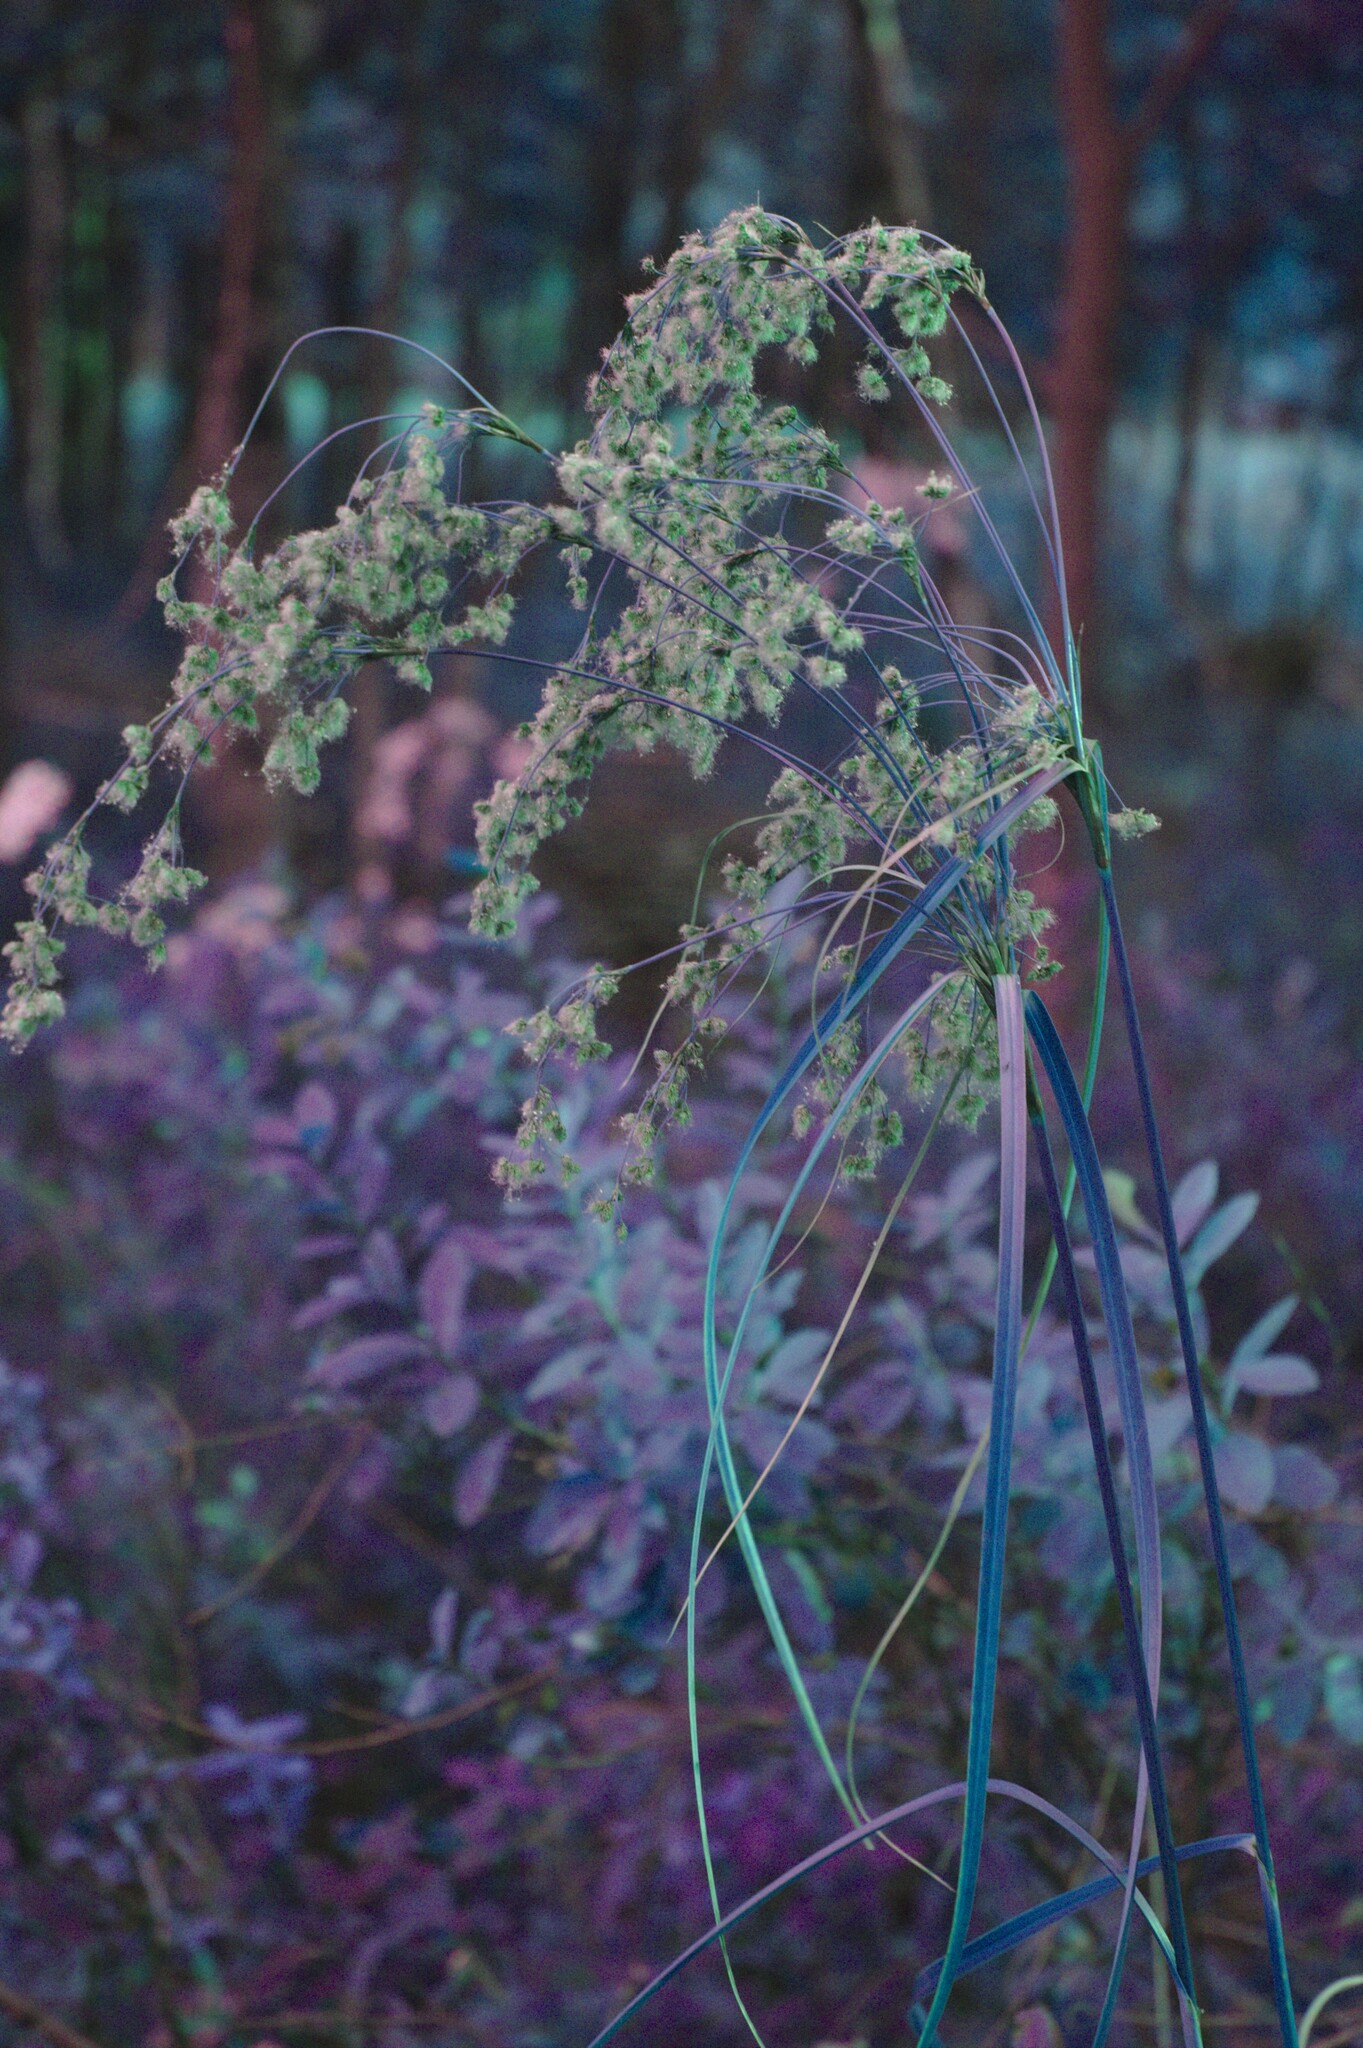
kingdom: Plantae
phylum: Tracheophyta
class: Liliopsida
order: Poales
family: Cyperaceae
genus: Scirpus
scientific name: Scirpus cyperinus
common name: Black-sheathed bulrush
